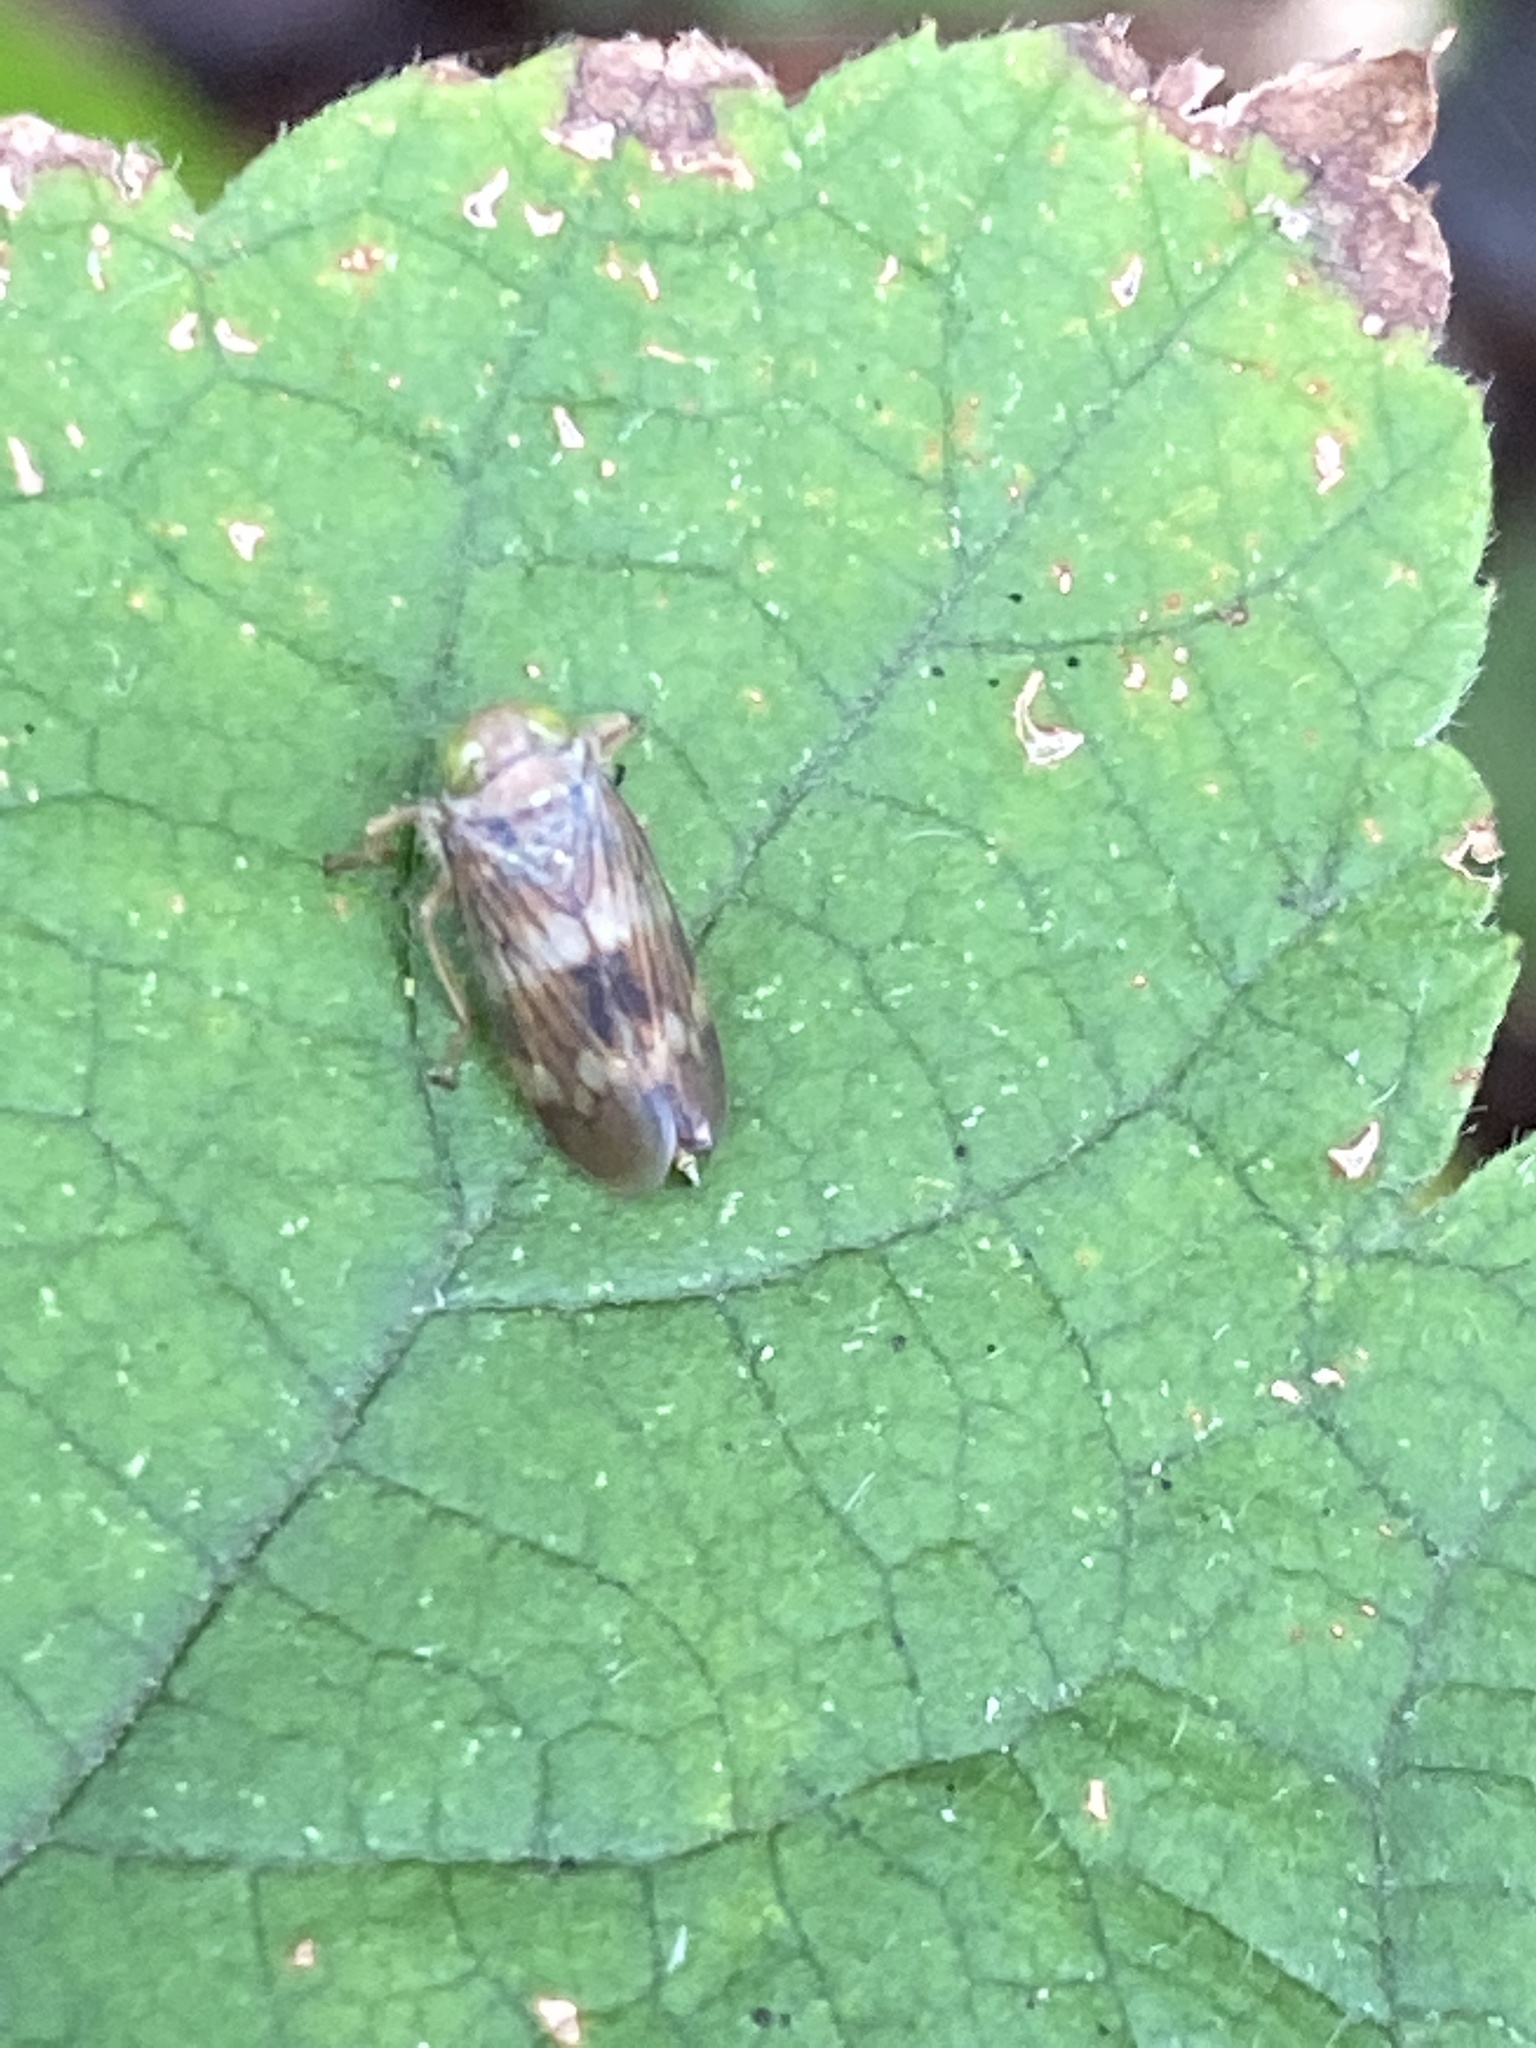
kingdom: Animalia
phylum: Arthropoda
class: Insecta
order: Hemiptera
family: Cicadellidae
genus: Jikradia
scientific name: Jikradia olitoria
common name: Coppery leafhopper
